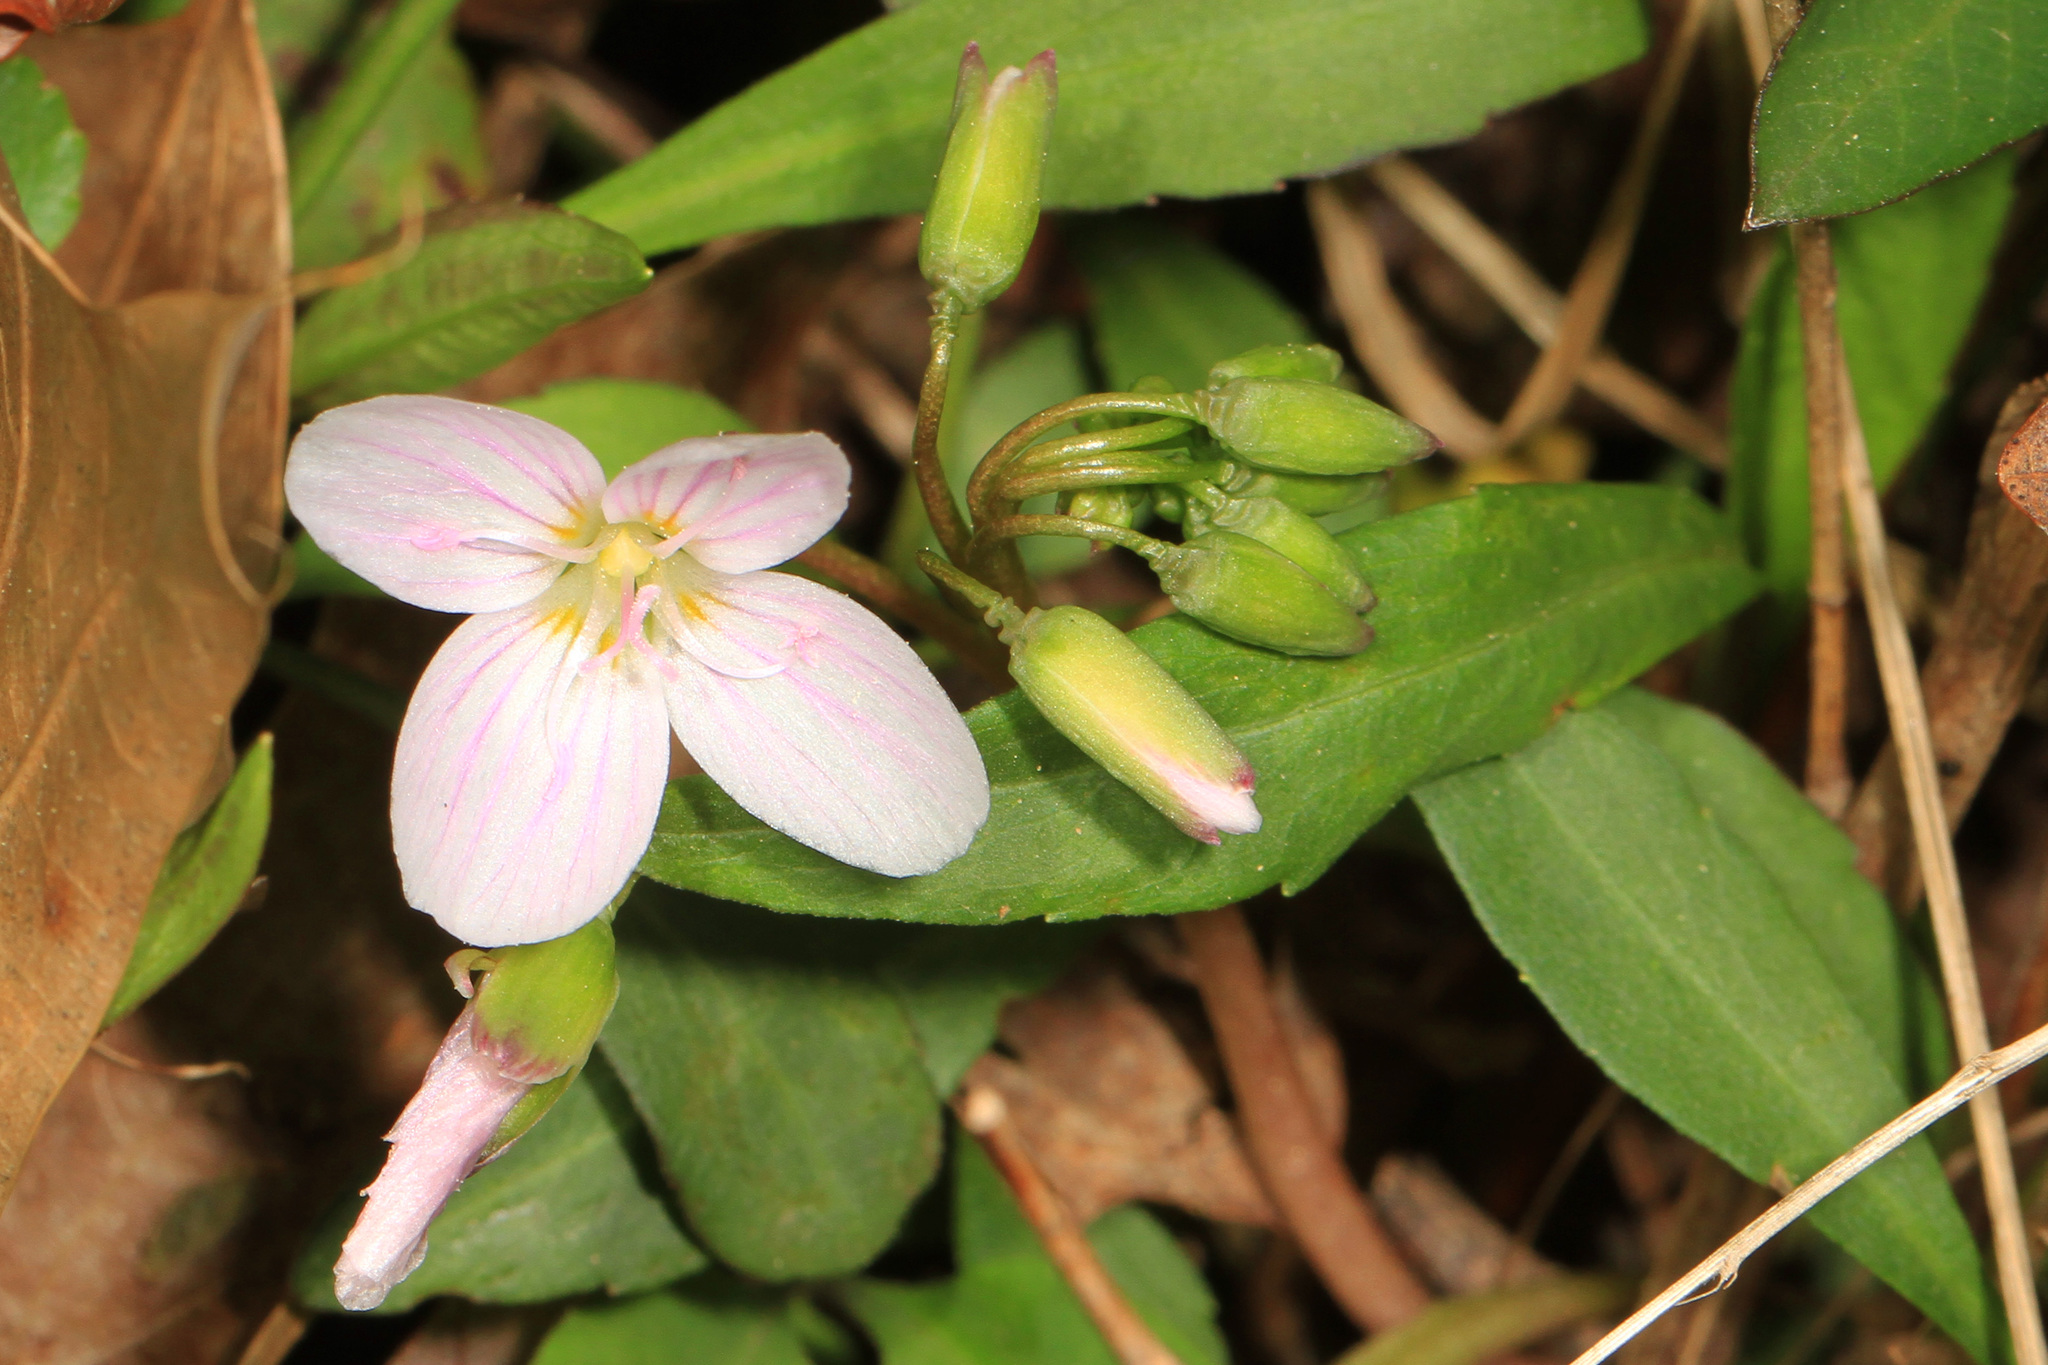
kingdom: Plantae
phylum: Tracheophyta
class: Magnoliopsida
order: Caryophyllales
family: Montiaceae
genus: Claytonia
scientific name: Claytonia virginica
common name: Virginia springbeauty
